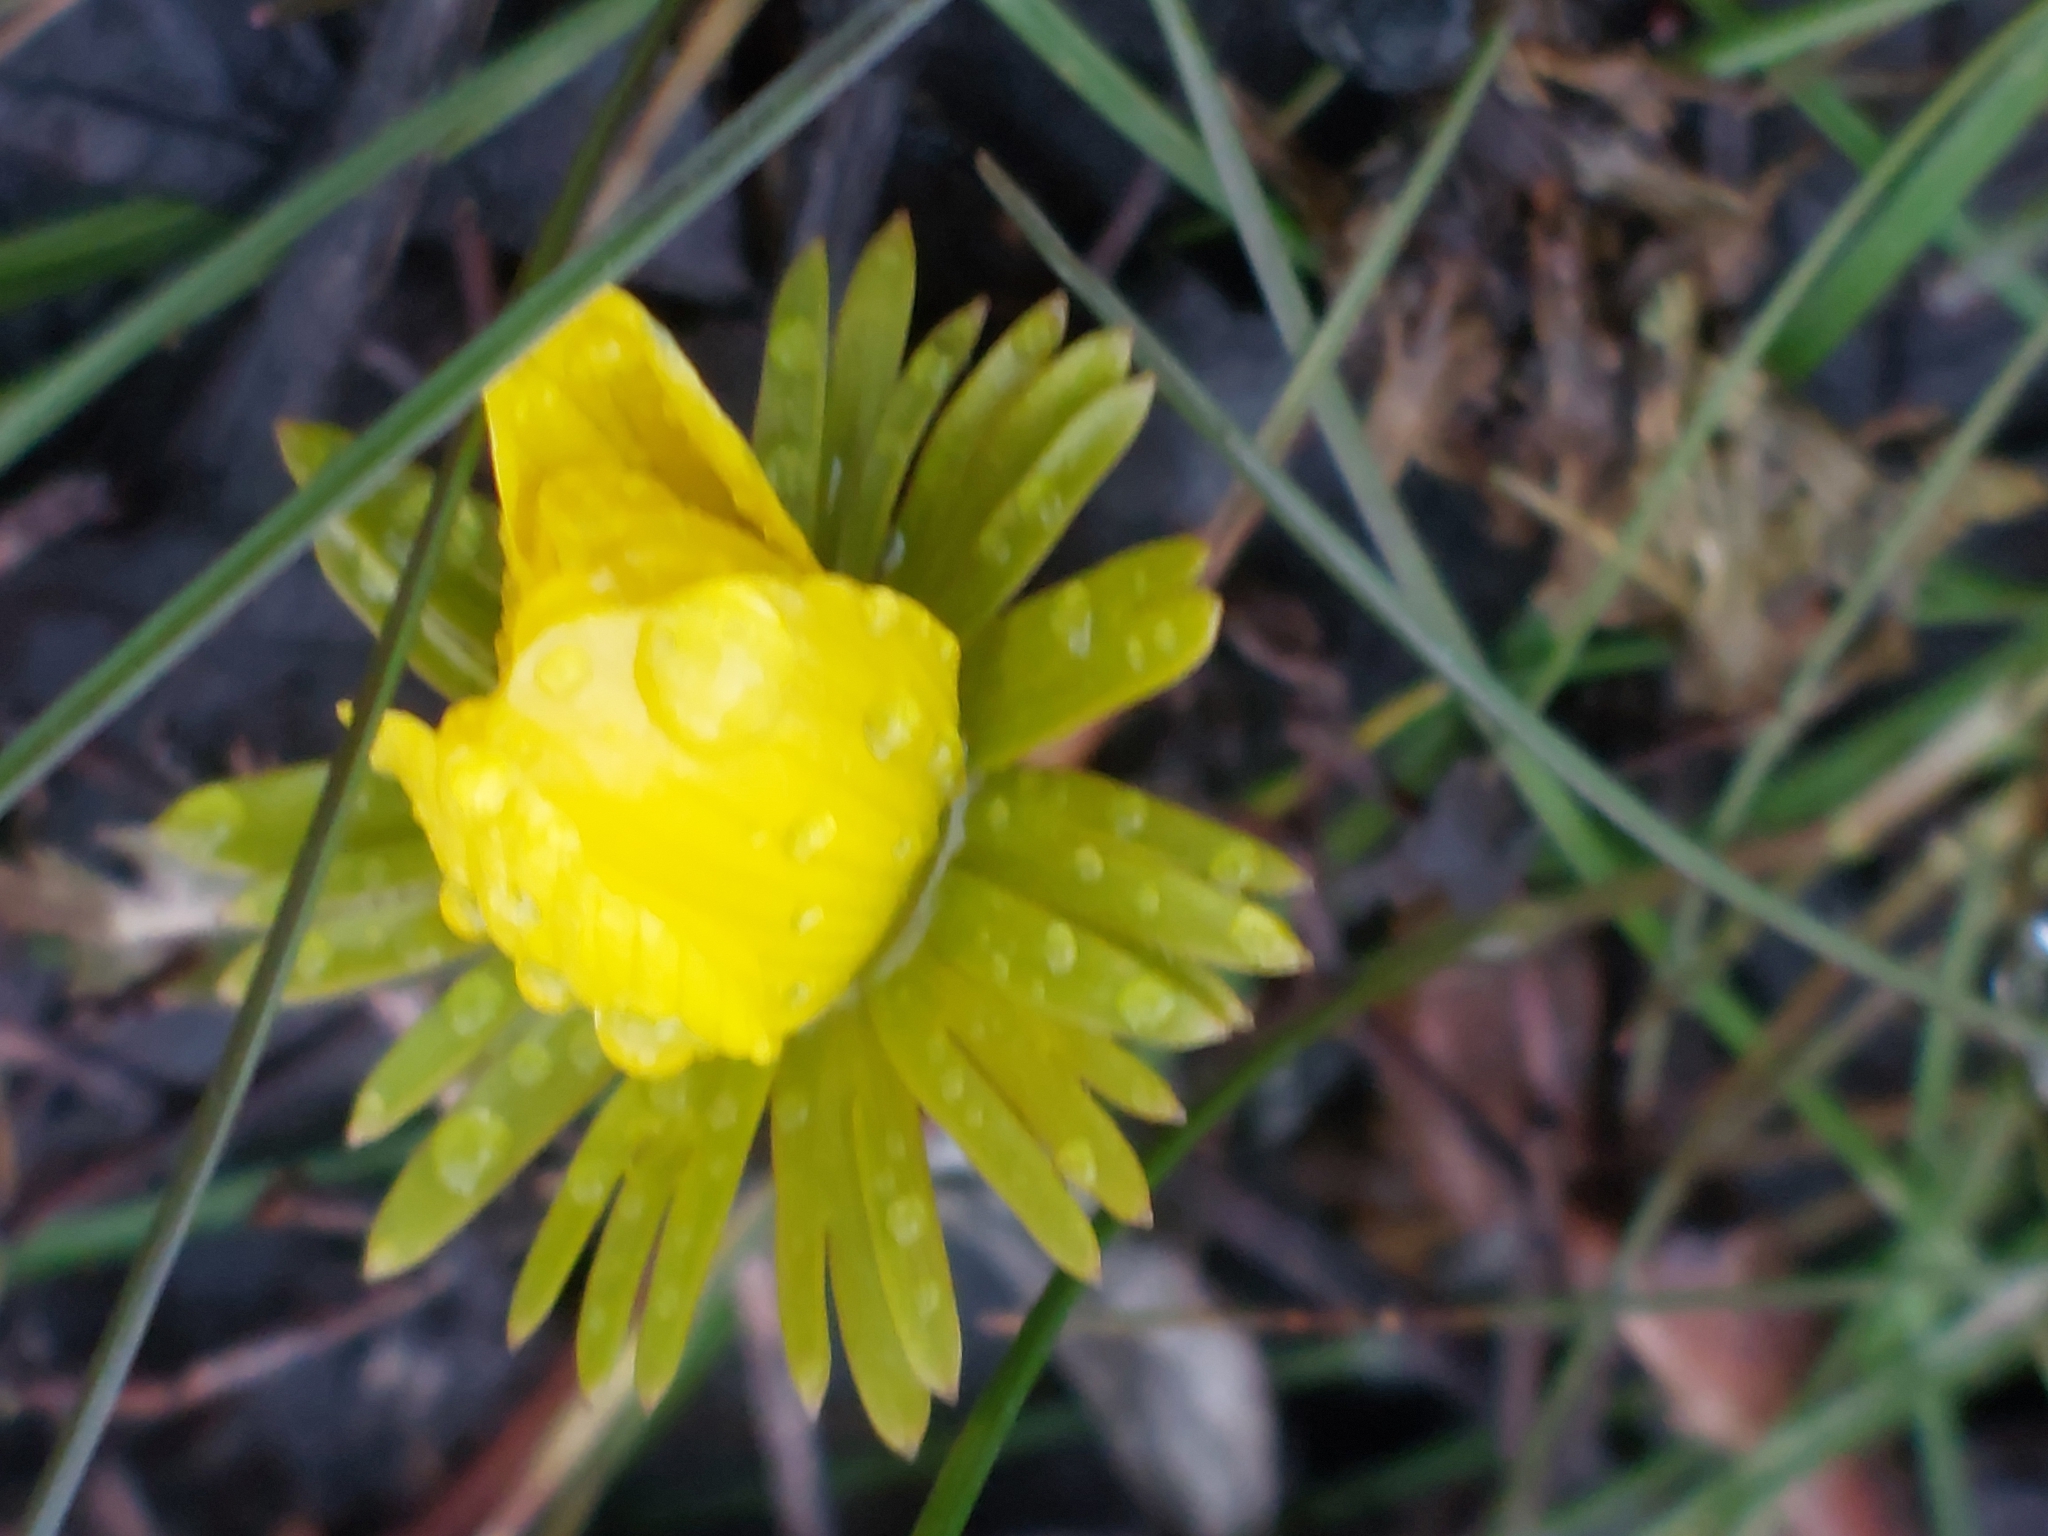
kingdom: Plantae
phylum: Tracheophyta
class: Magnoliopsida
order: Ranunculales
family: Ranunculaceae
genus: Eranthis
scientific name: Eranthis hyemalis
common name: Winter aconite
